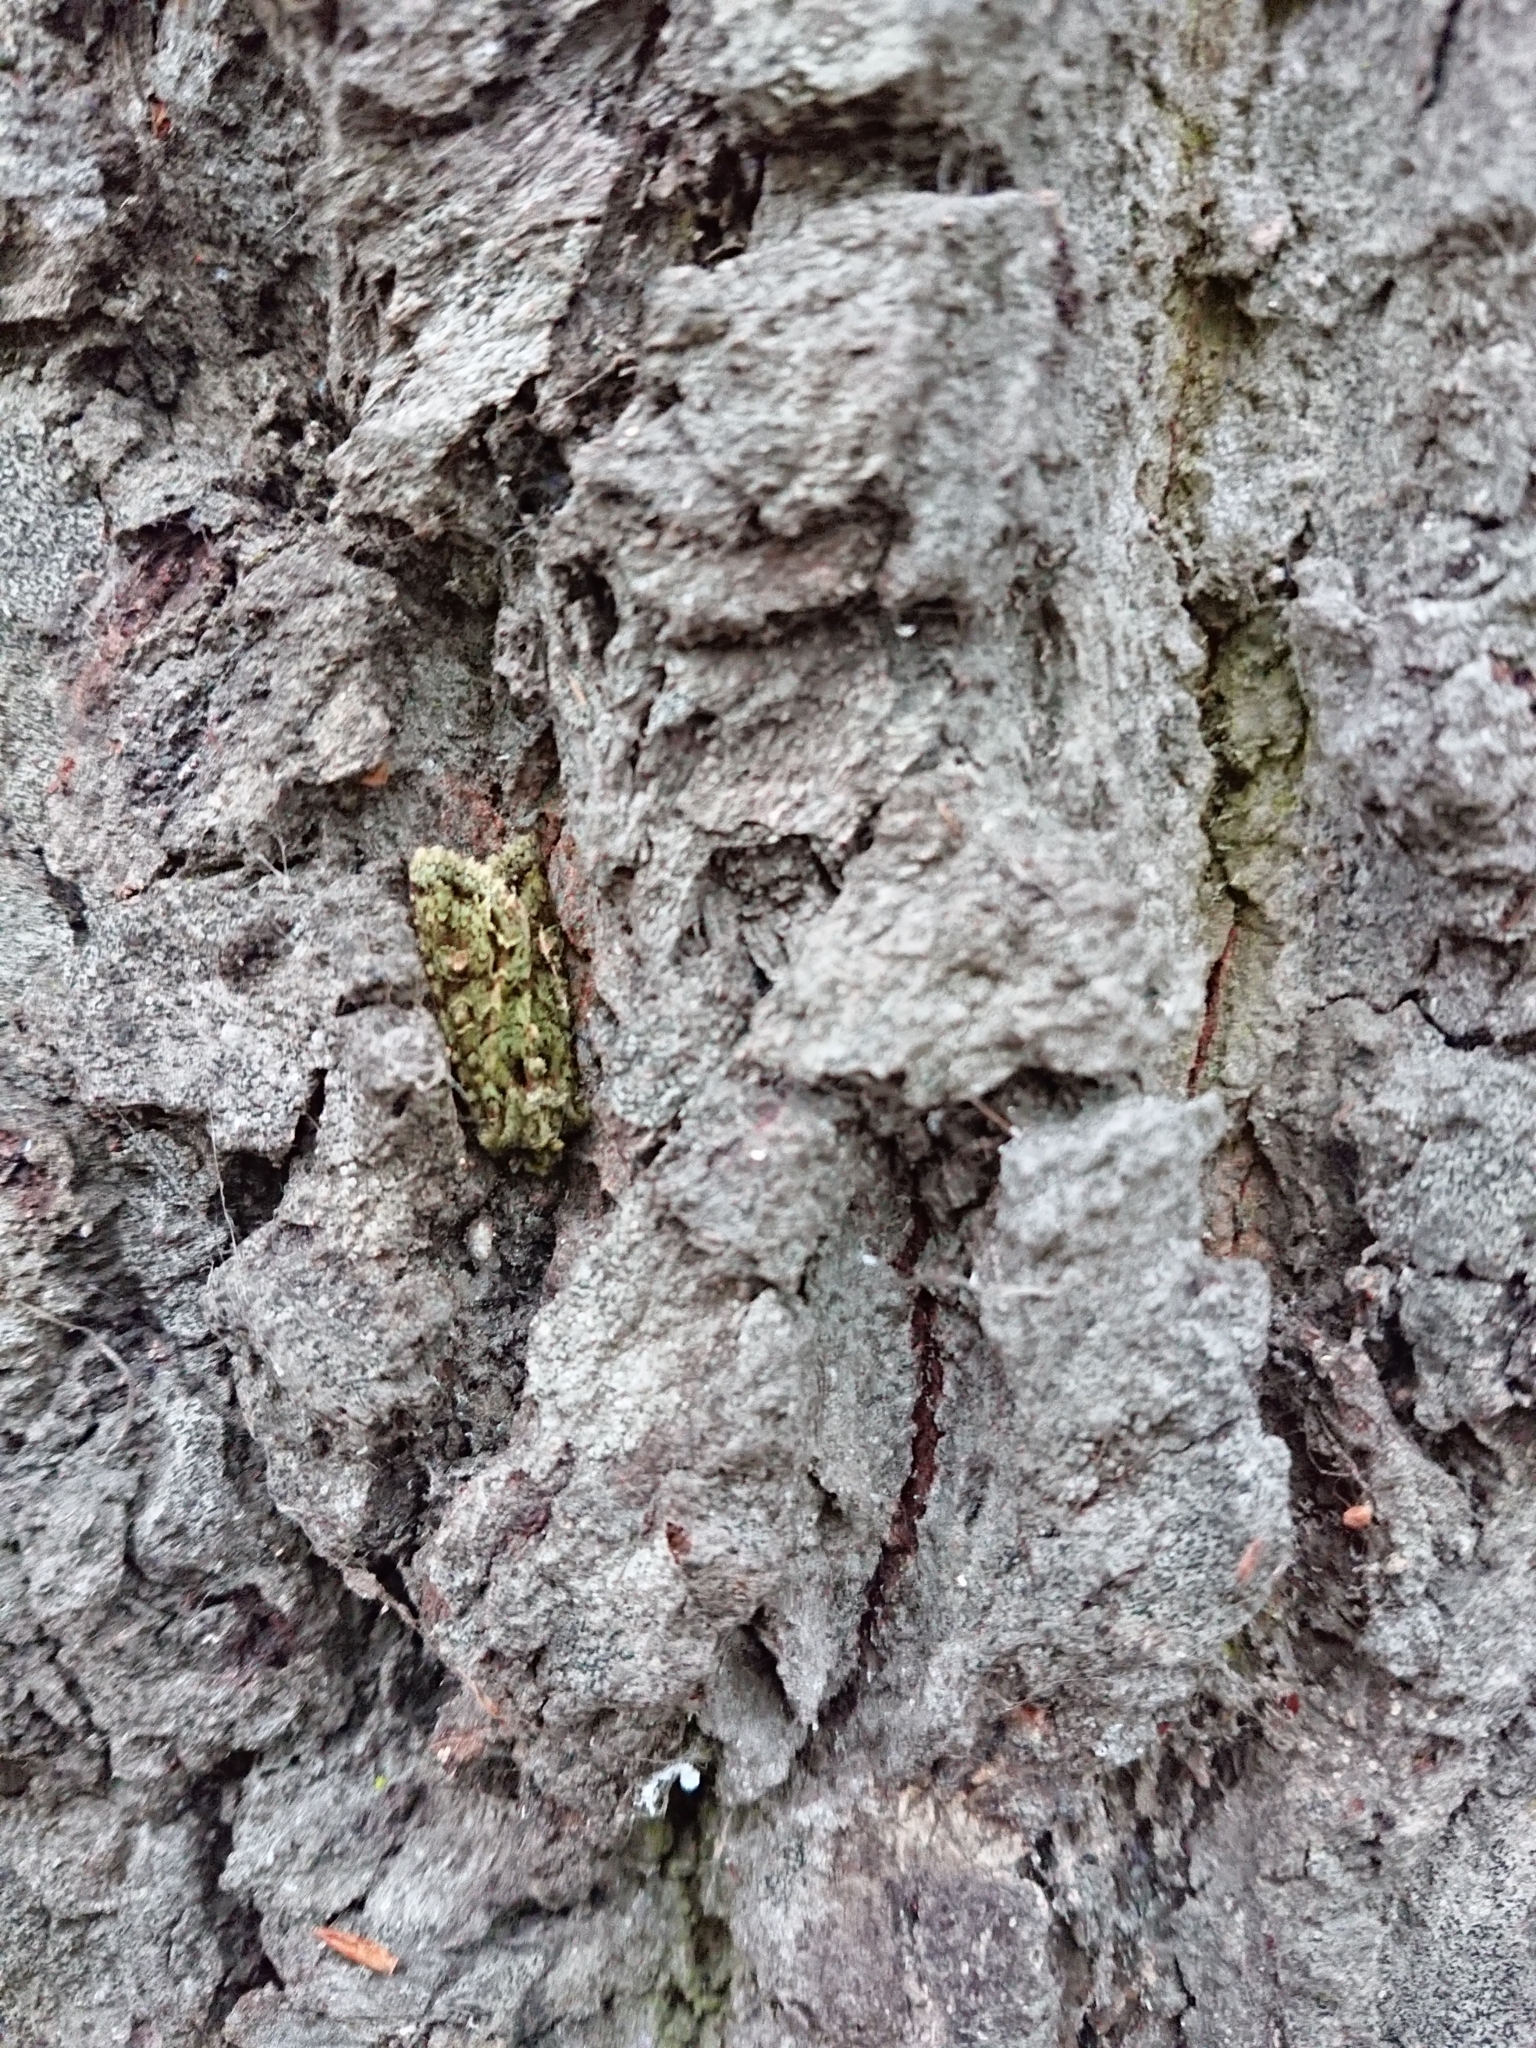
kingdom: Animalia
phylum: Arthropoda
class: Insecta
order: Lepidoptera
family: Noctuidae
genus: Ichneutica
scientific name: Ichneutica
